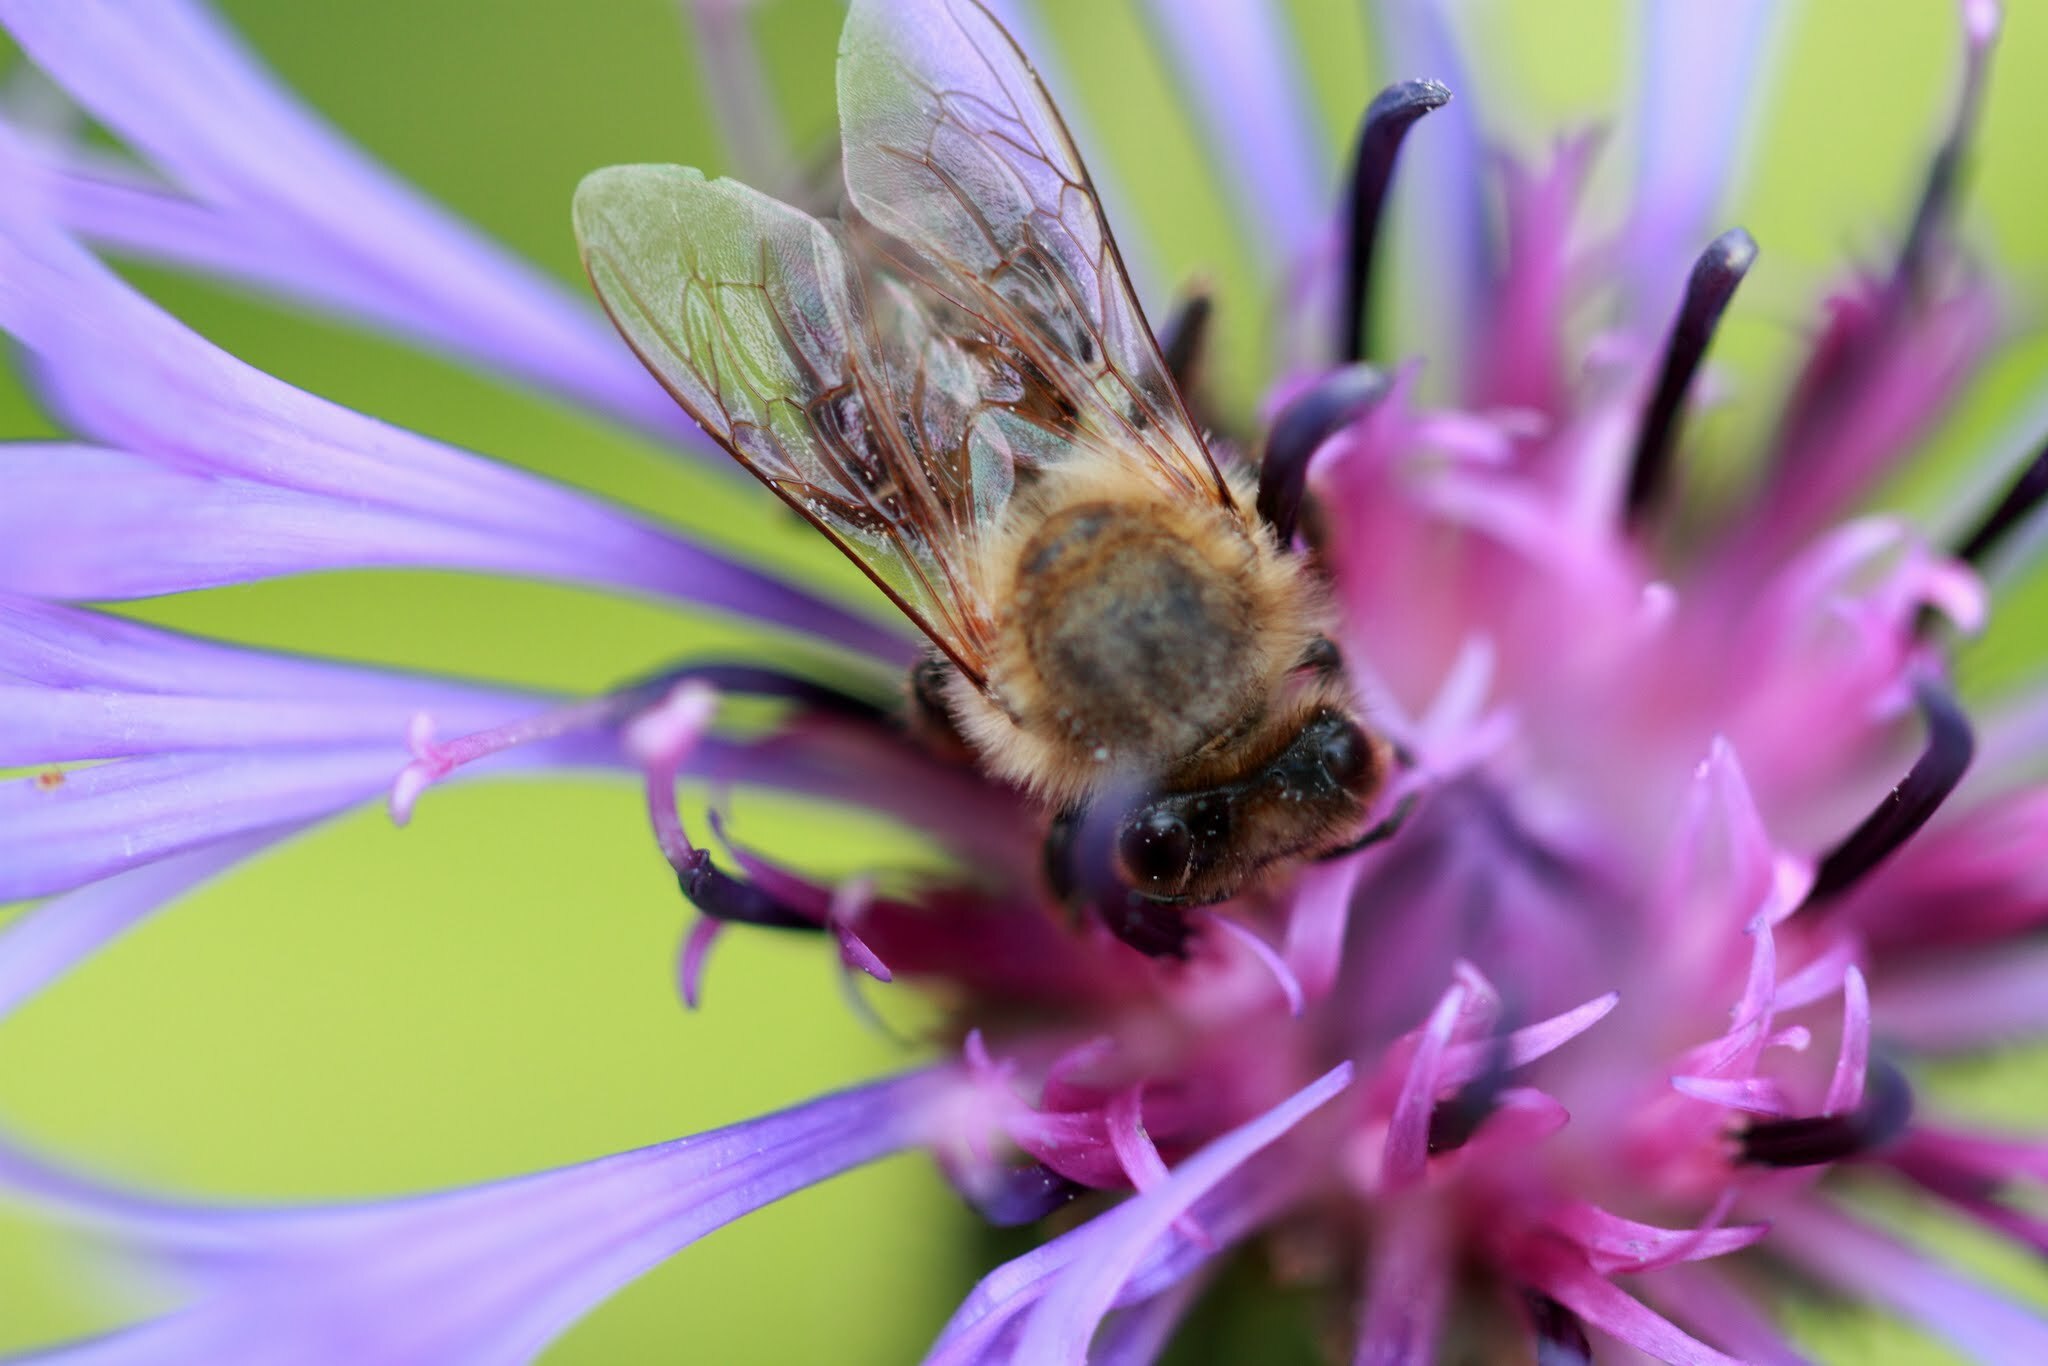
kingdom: Animalia
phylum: Arthropoda
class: Insecta
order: Hymenoptera
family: Apidae
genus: Apis
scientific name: Apis mellifera
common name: Honey bee
